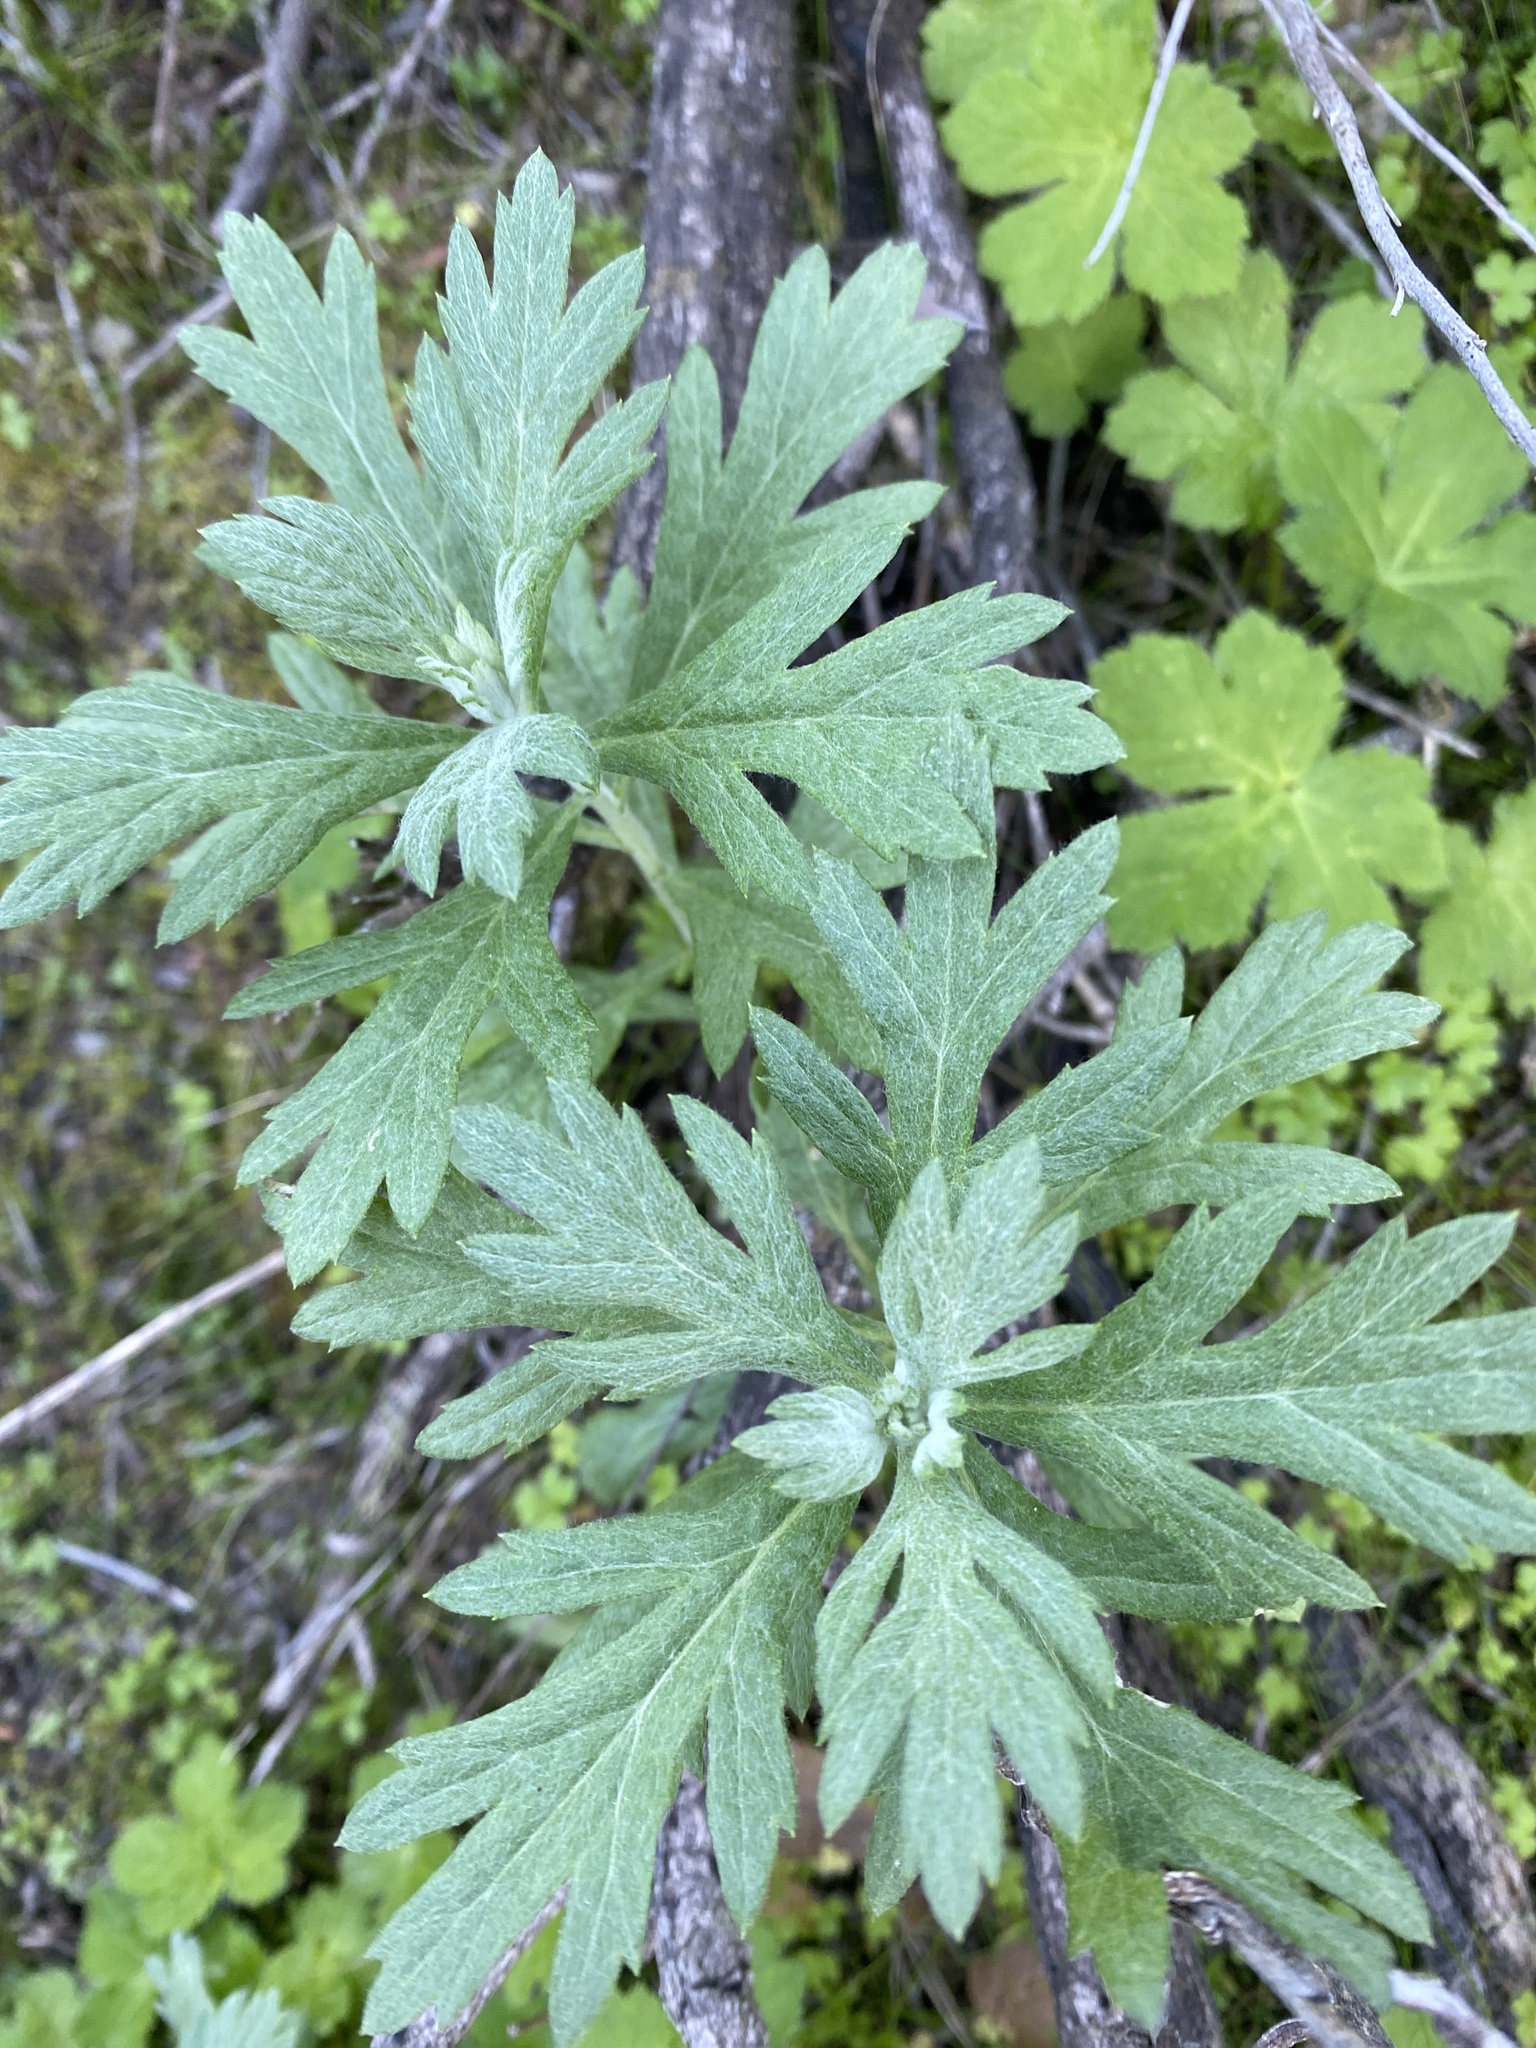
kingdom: Plantae
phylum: Tracheophyta
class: Magnoliopsida
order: Asterales
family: Asteraceae
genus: Artemisia
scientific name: Artemisia douglasiana
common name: Northwest mugwort
